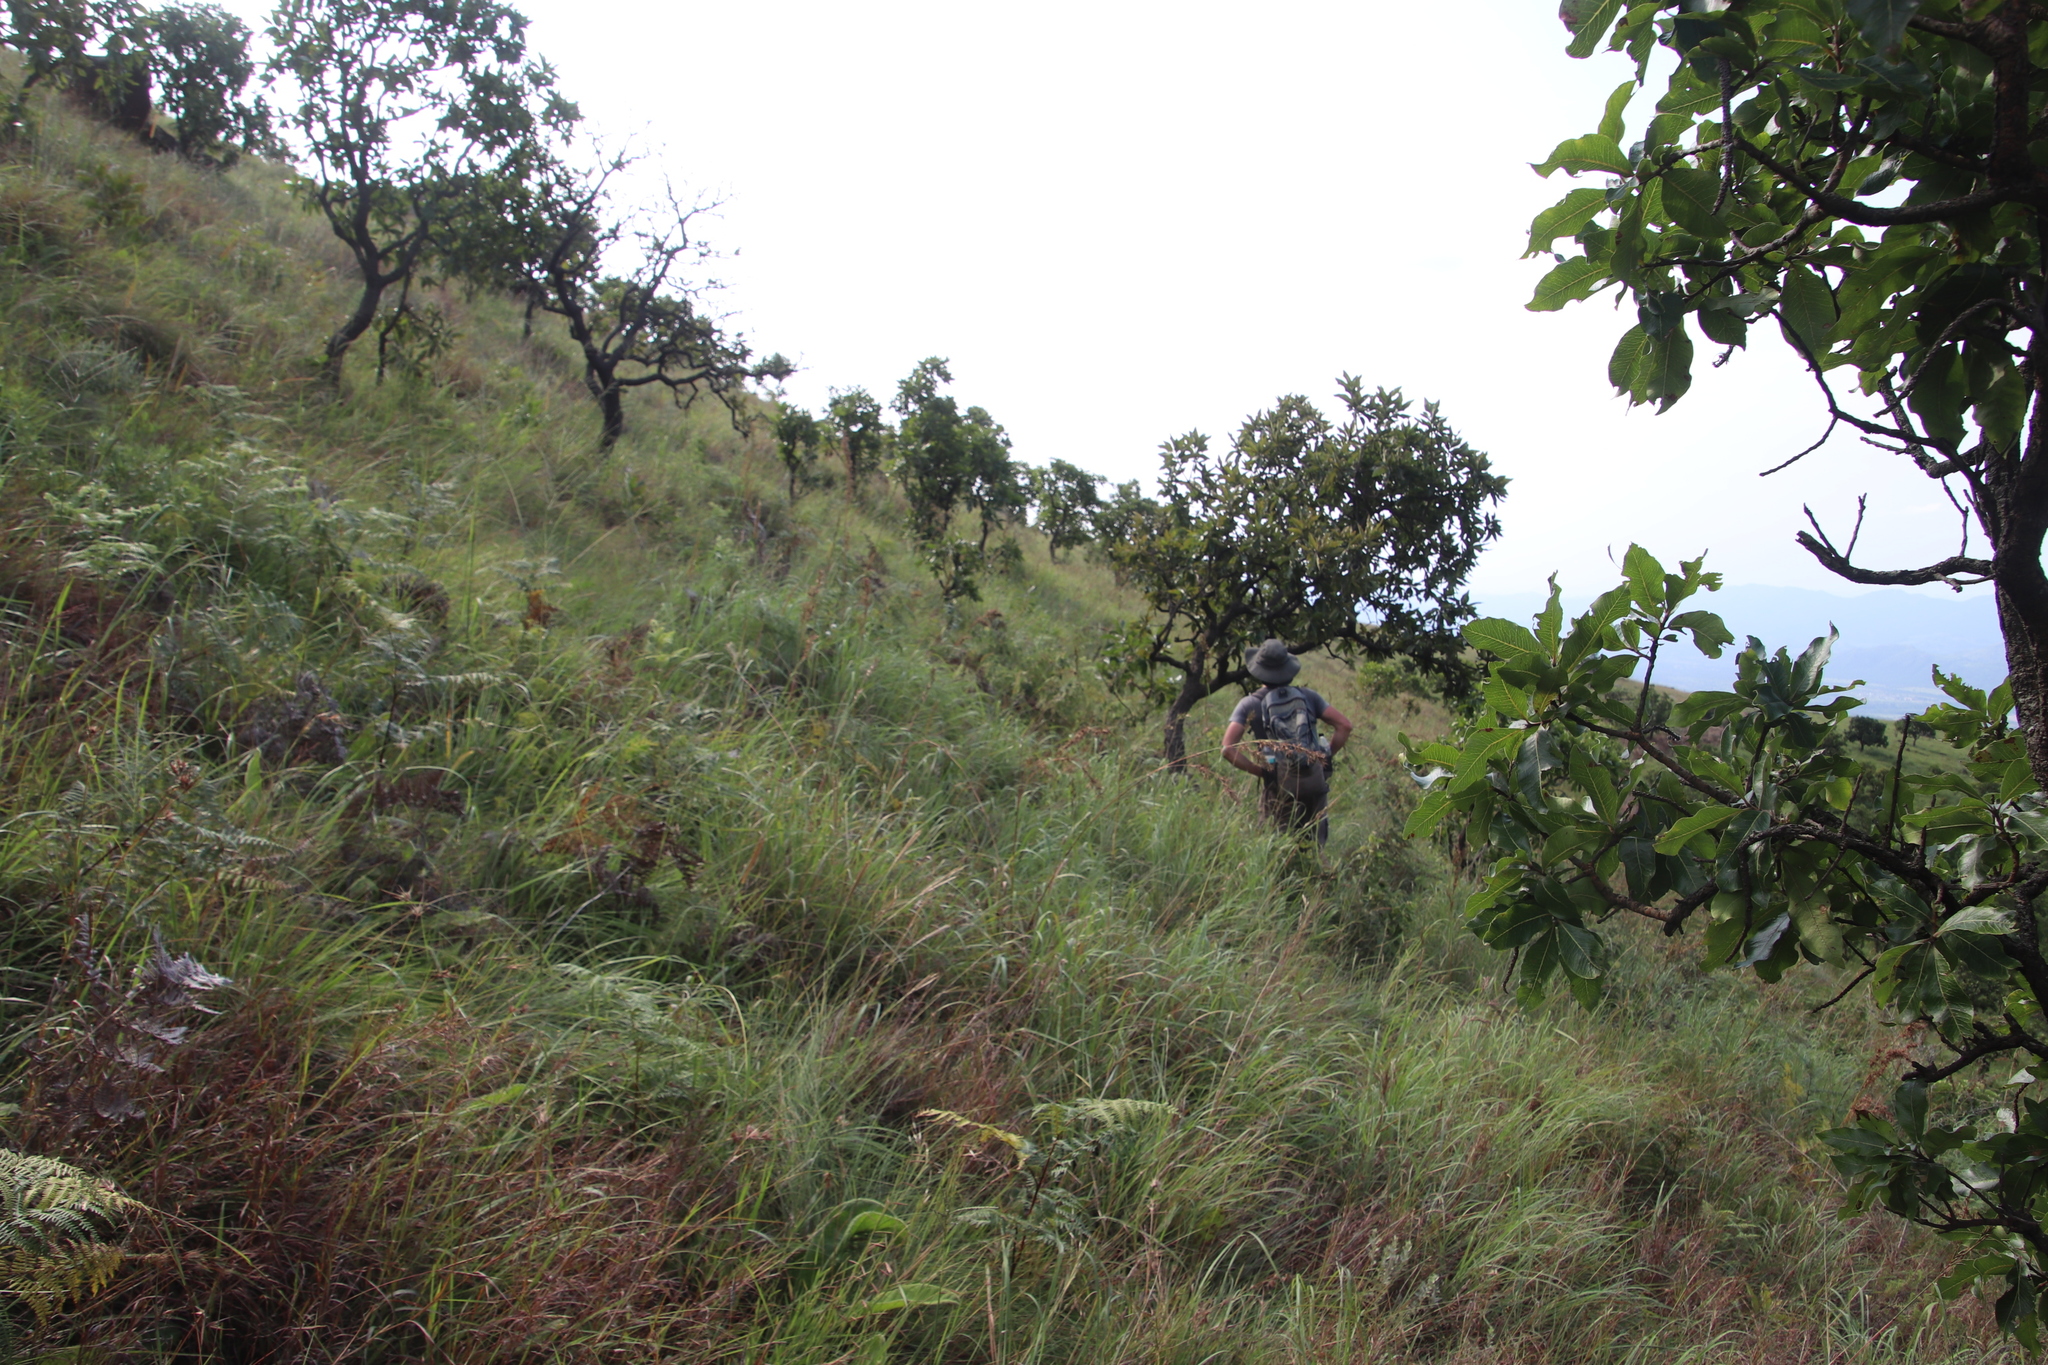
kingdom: Plantae
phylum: Tracheophyta
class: Magnoliopsida
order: Proteales
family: Proteaceae
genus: Faurea
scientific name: Faurea rochetiana
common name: Broad-leaved beech
